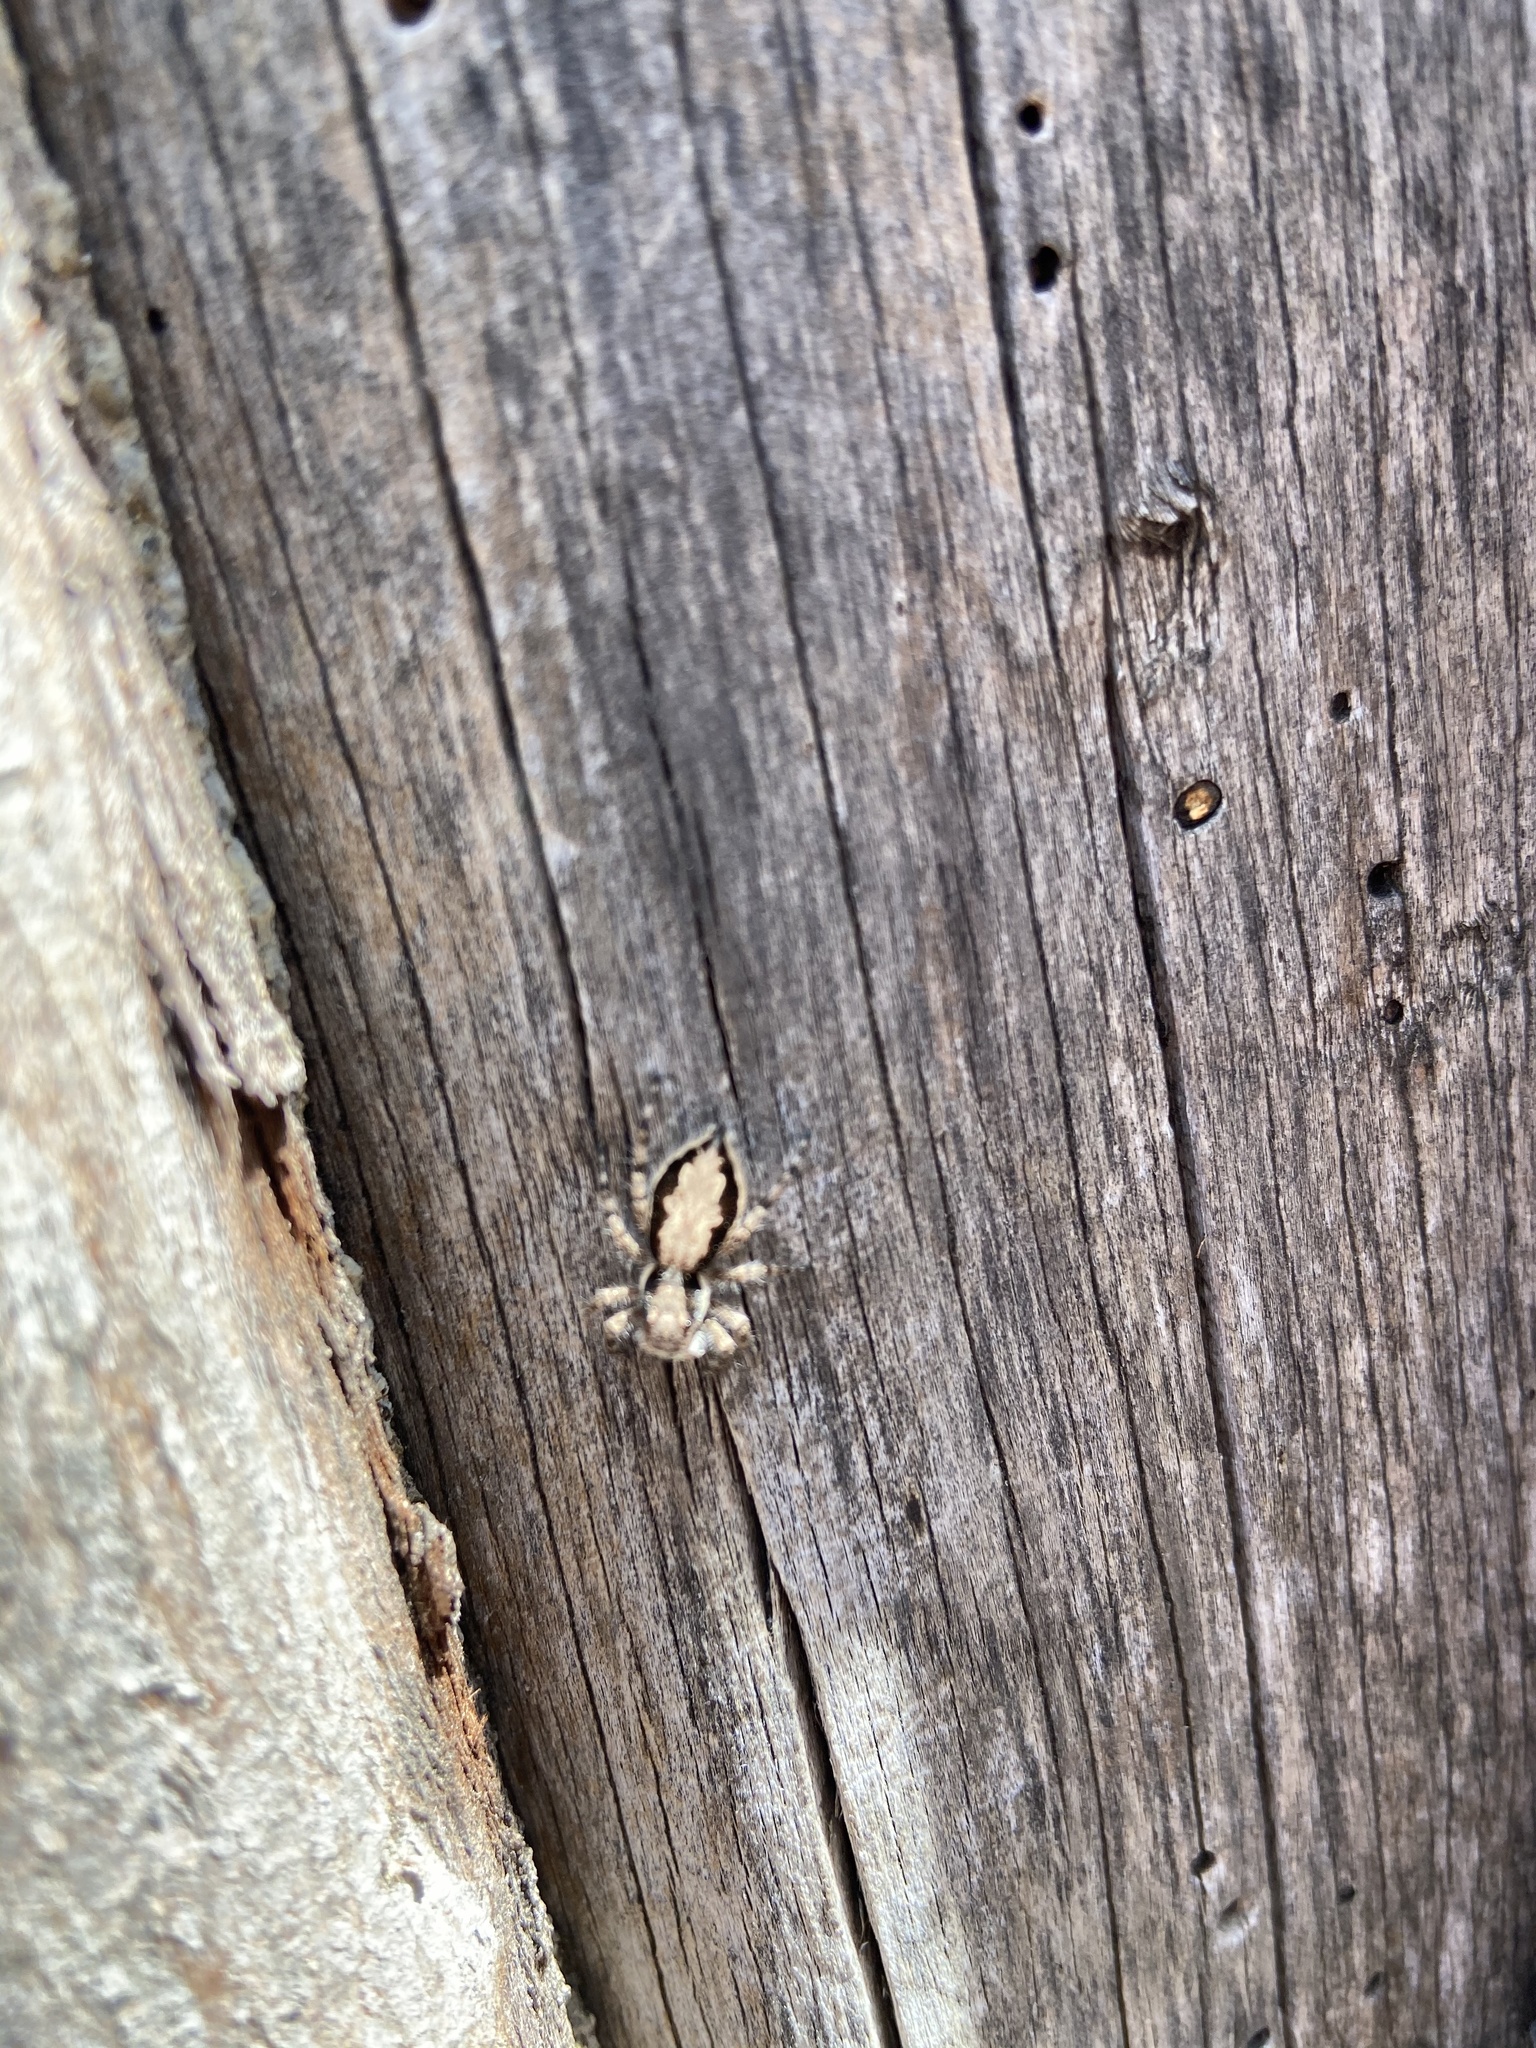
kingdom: Animalia
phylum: Arthropoda
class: Arachnida
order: Araneae
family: Salticidae
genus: Menemerus
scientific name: Menemerus bivittatus
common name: Gray wall jumper
